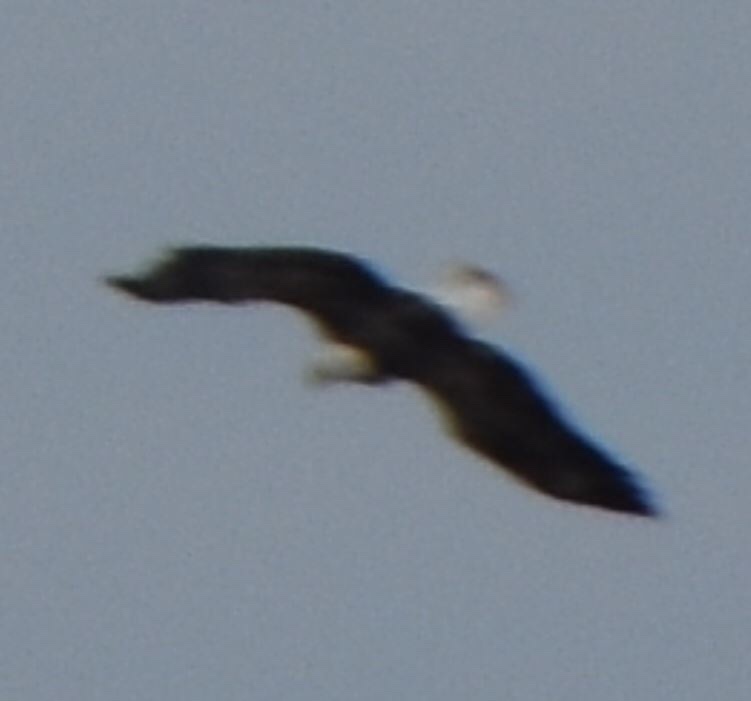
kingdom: Animalia
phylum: Chordata
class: Aves
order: Accipitriformes
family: Accipitridae
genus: Haliaeetus
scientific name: Haliaeetus leucocephalus
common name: Bald eagle
